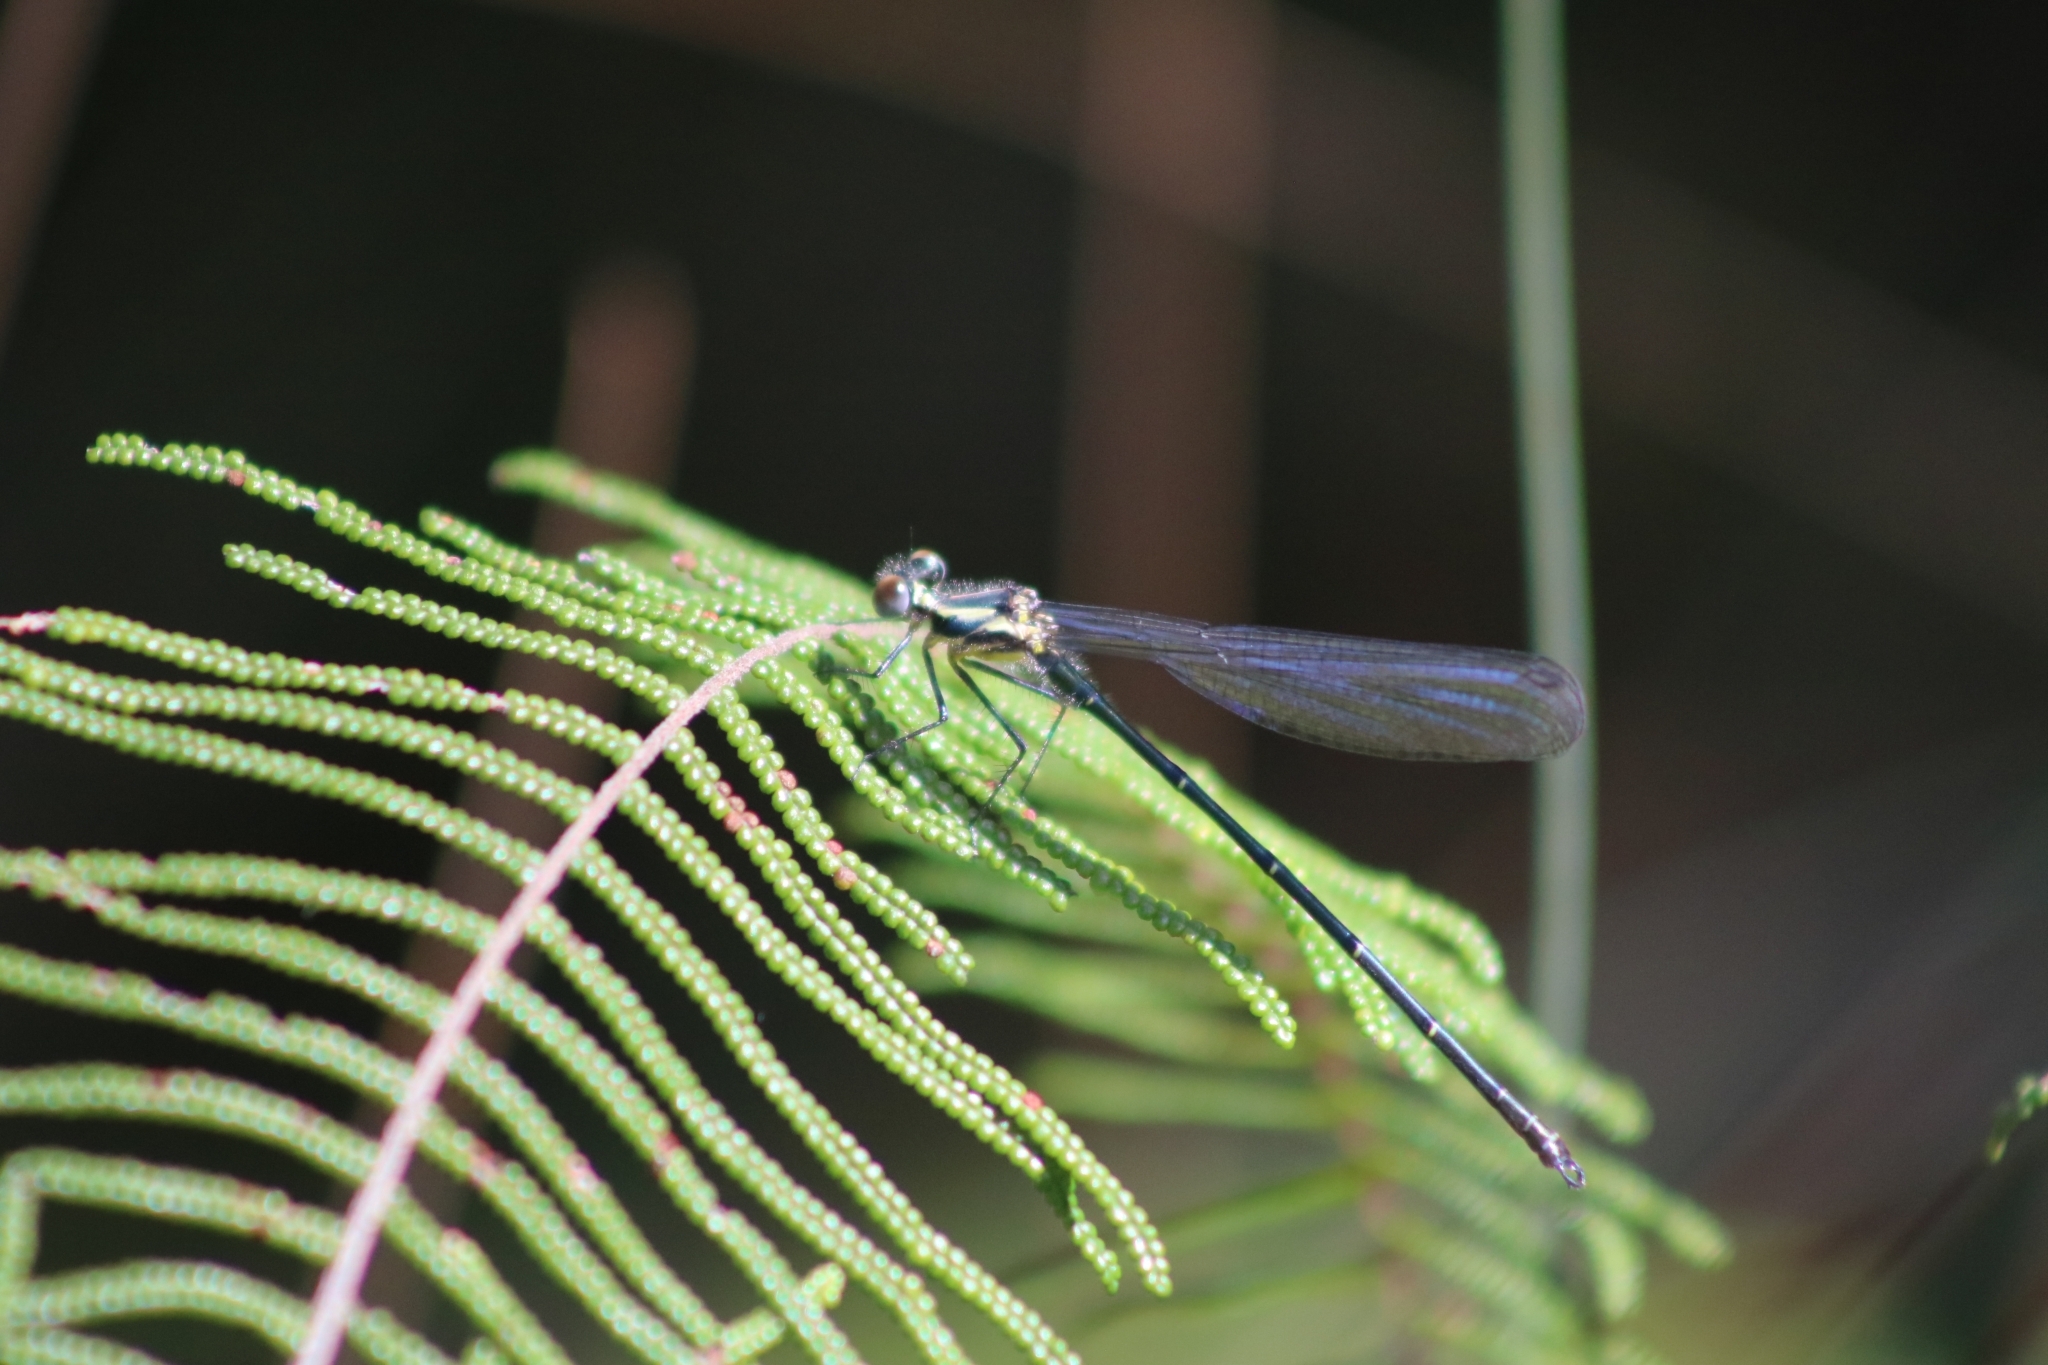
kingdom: Animalia
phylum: Arthropoda
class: Insecta
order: Odonata
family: Argiolestidae
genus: Austroargiolestes
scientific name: Austroargiolestes icteromelas
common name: Common flatwing
